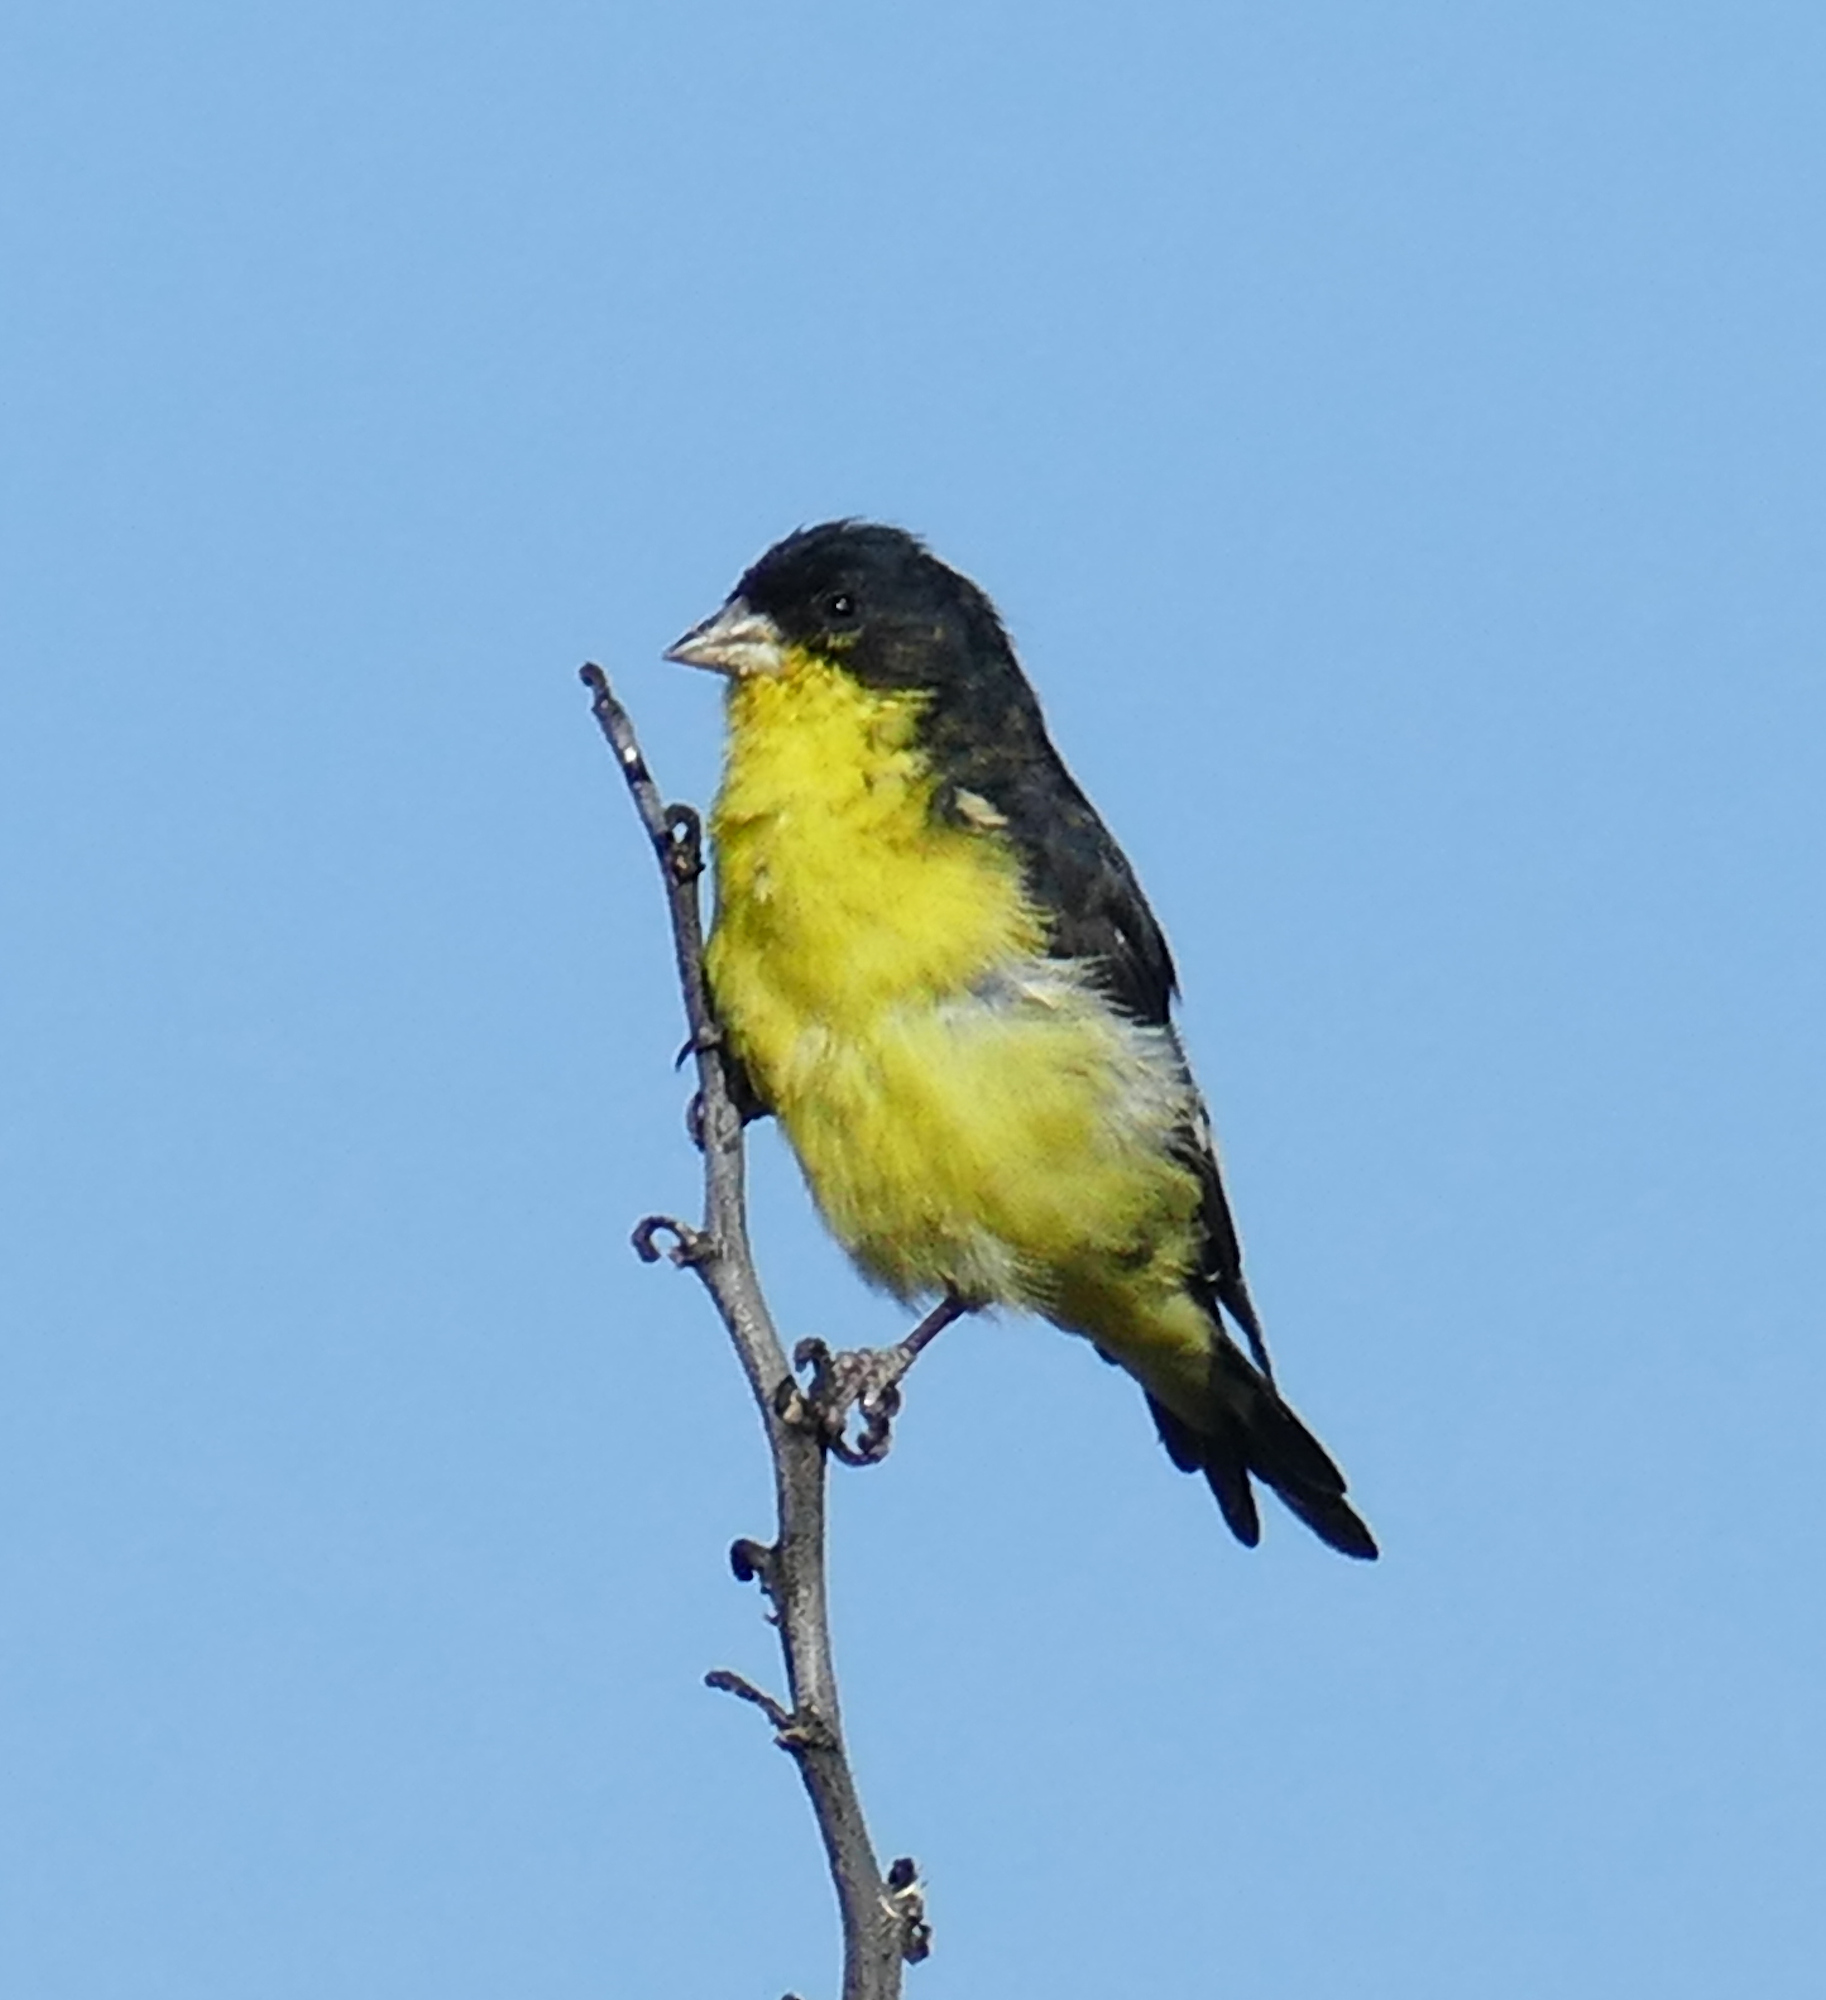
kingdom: Animalia
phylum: Chordata
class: Aves
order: Passeriformes
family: Fringillidae
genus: Spinus
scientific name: Spinus psaltria
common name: Lesser goldfinch
